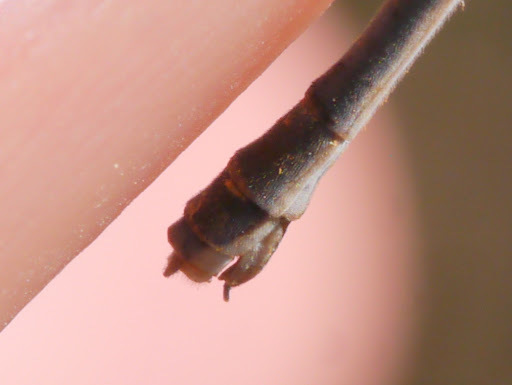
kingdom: Animalia
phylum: Arthropoda
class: Insecta
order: Odonata
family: Coenagrionidae
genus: Ischnura
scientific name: Ischnura posita
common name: Fragile forktail
